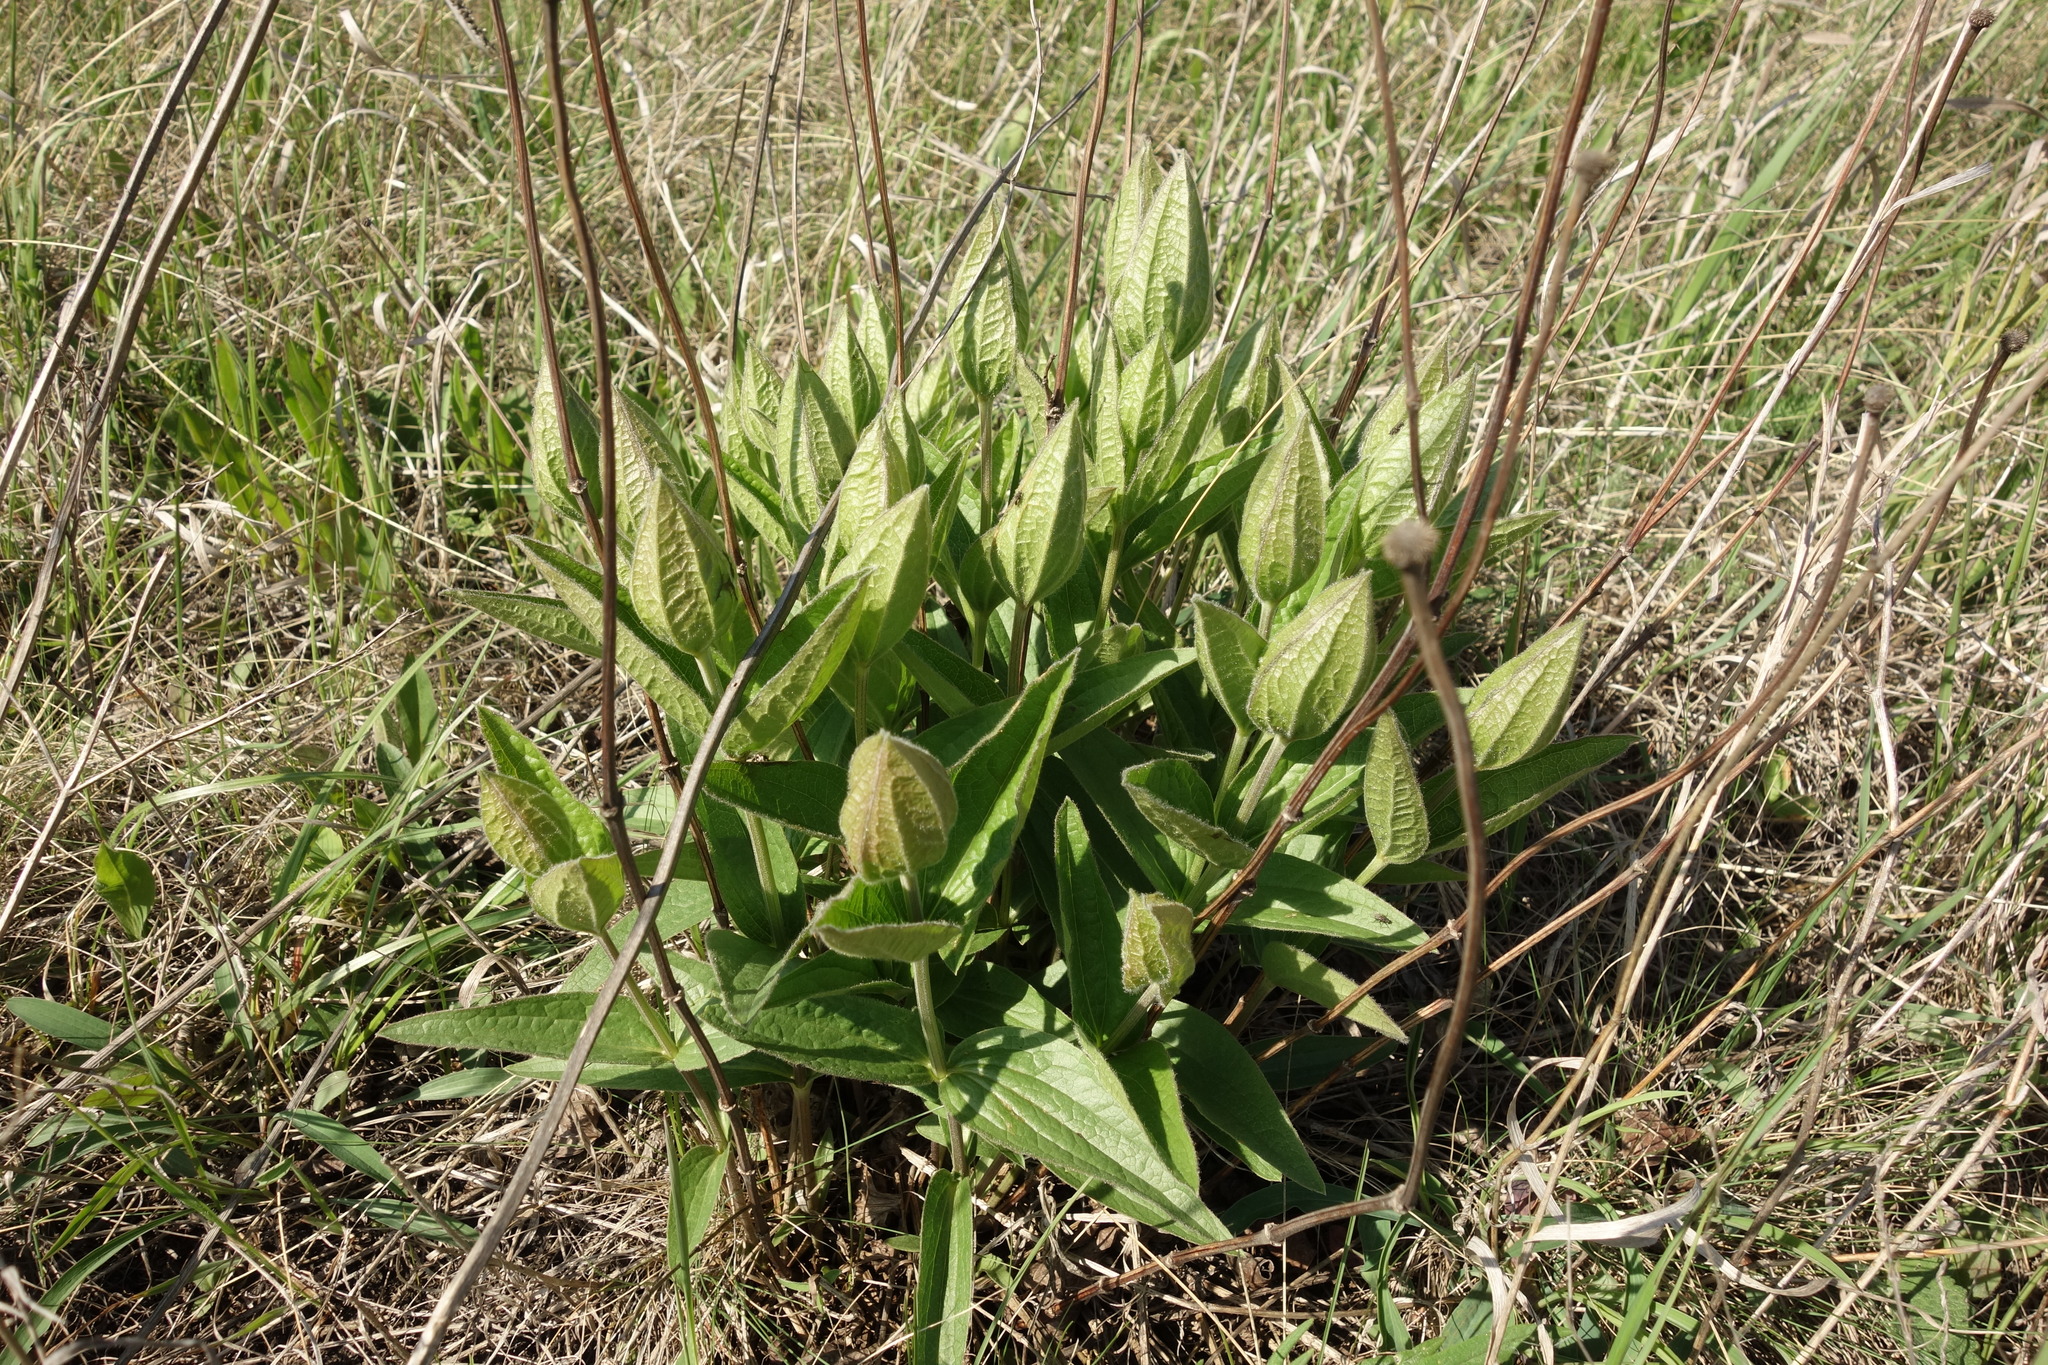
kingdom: Plantae
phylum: Tracheophyta
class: Magnoliopsida
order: Ranunculales
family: Ranunculaceae
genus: Clematis
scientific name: Clematis integrifolia
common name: Solitary clematis
